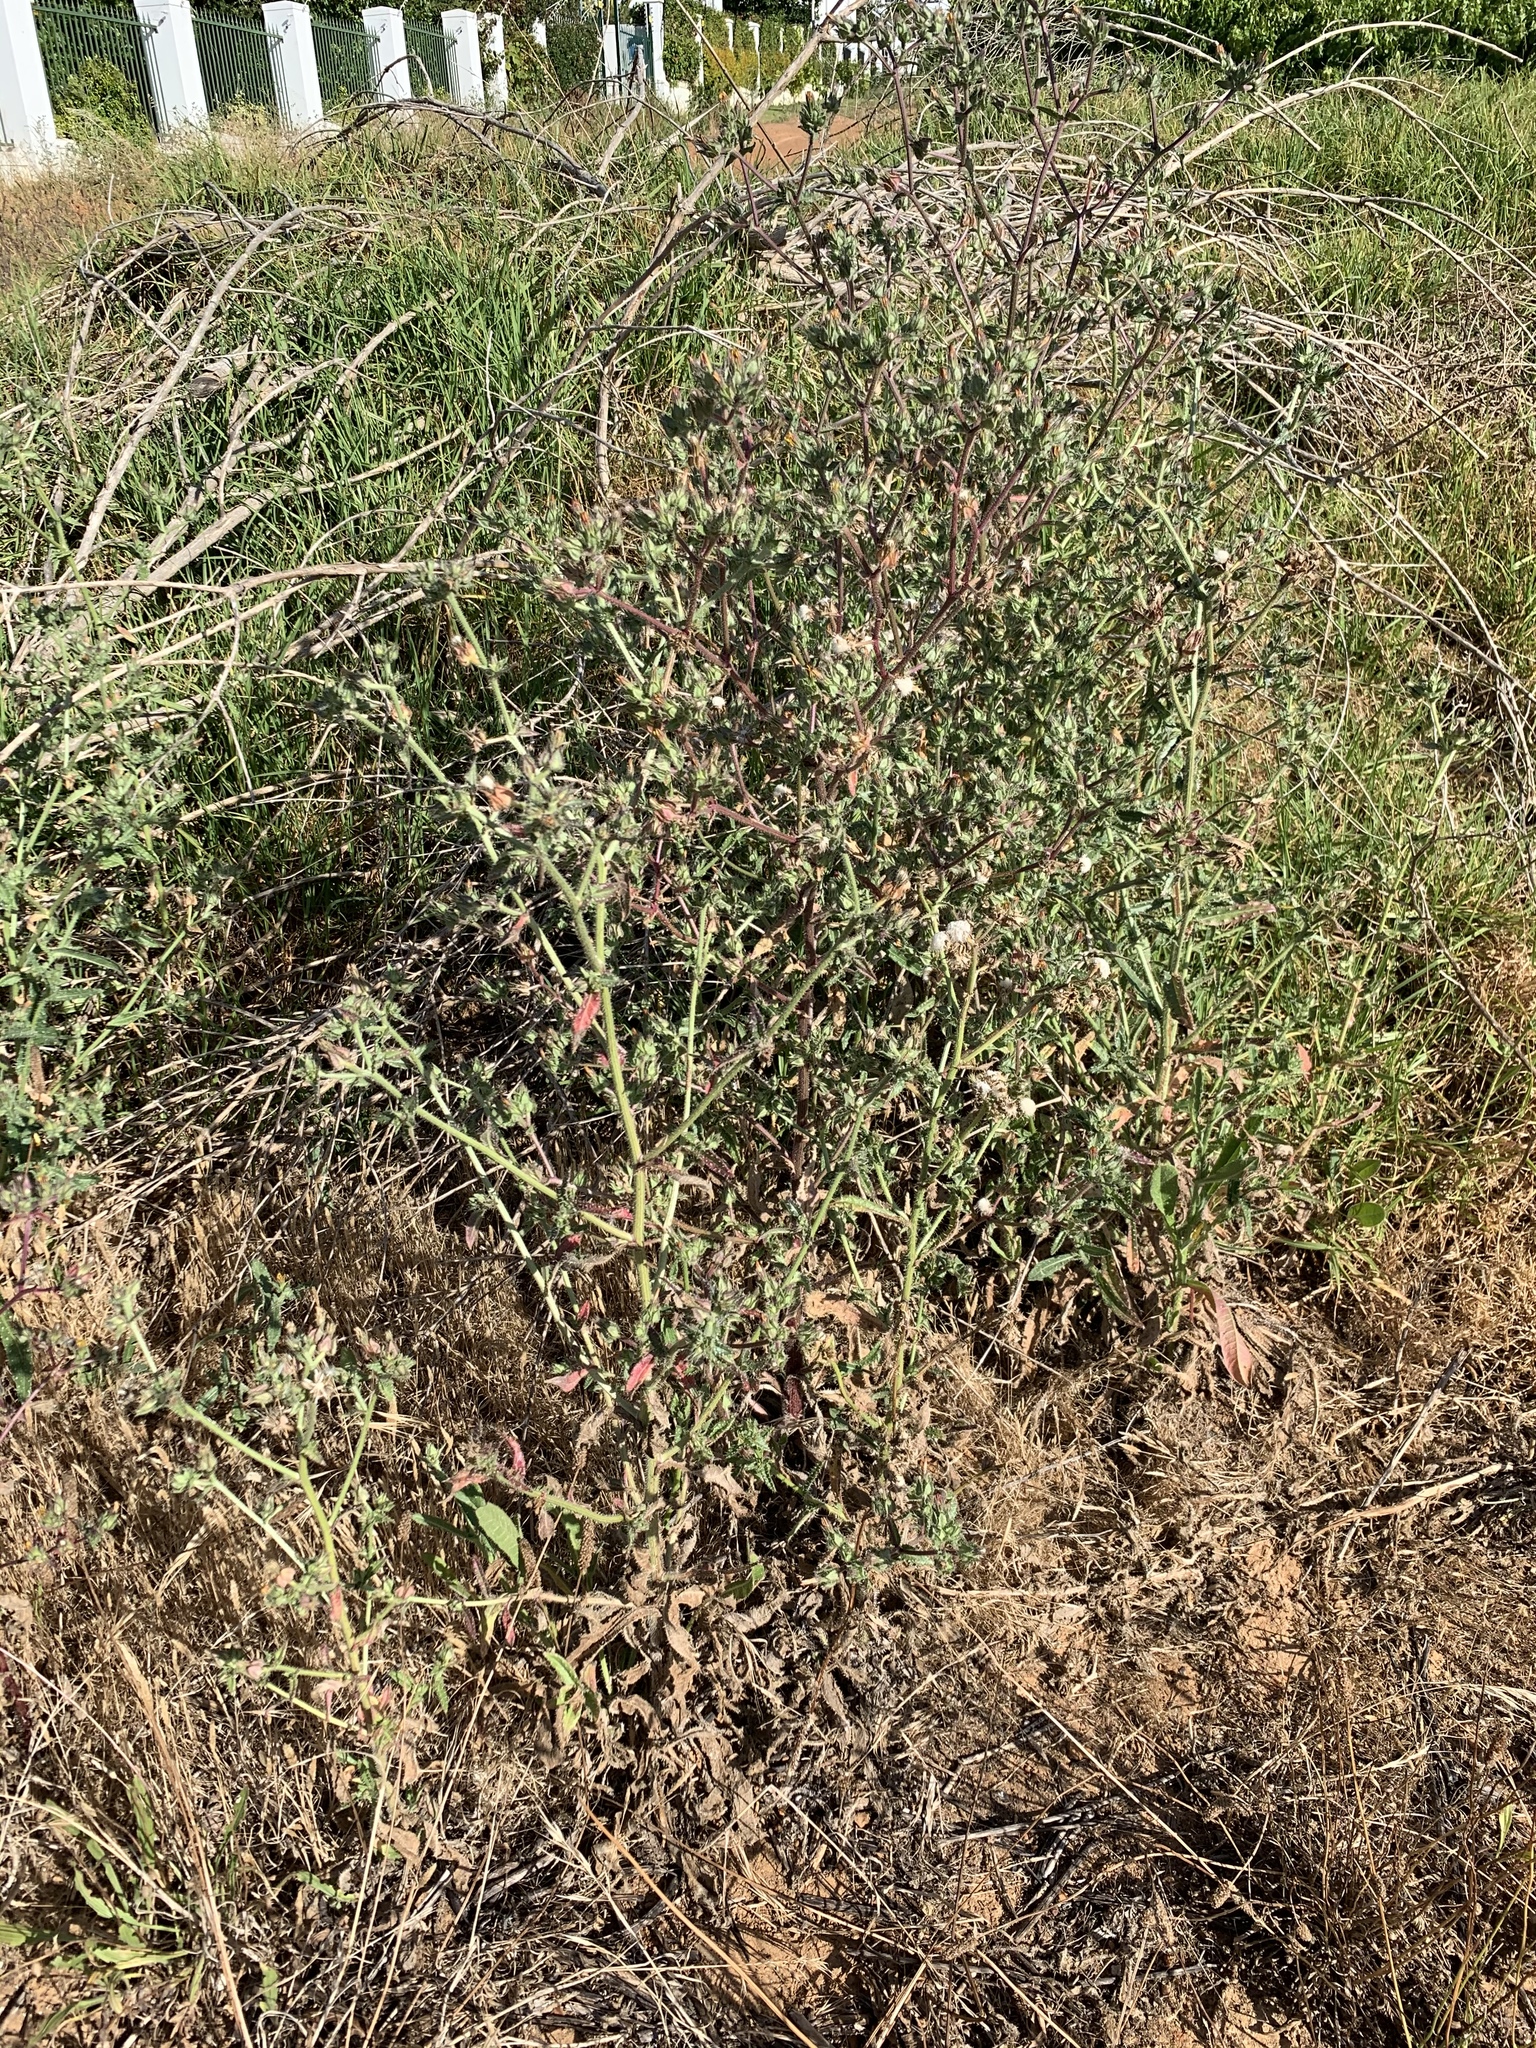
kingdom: Plantae
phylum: Tracheophyta
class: Magnoliopsida
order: Asterales
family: Asteraceae
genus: Helminthotheca
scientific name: Helminthotheca echioides
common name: Ox-tongue
